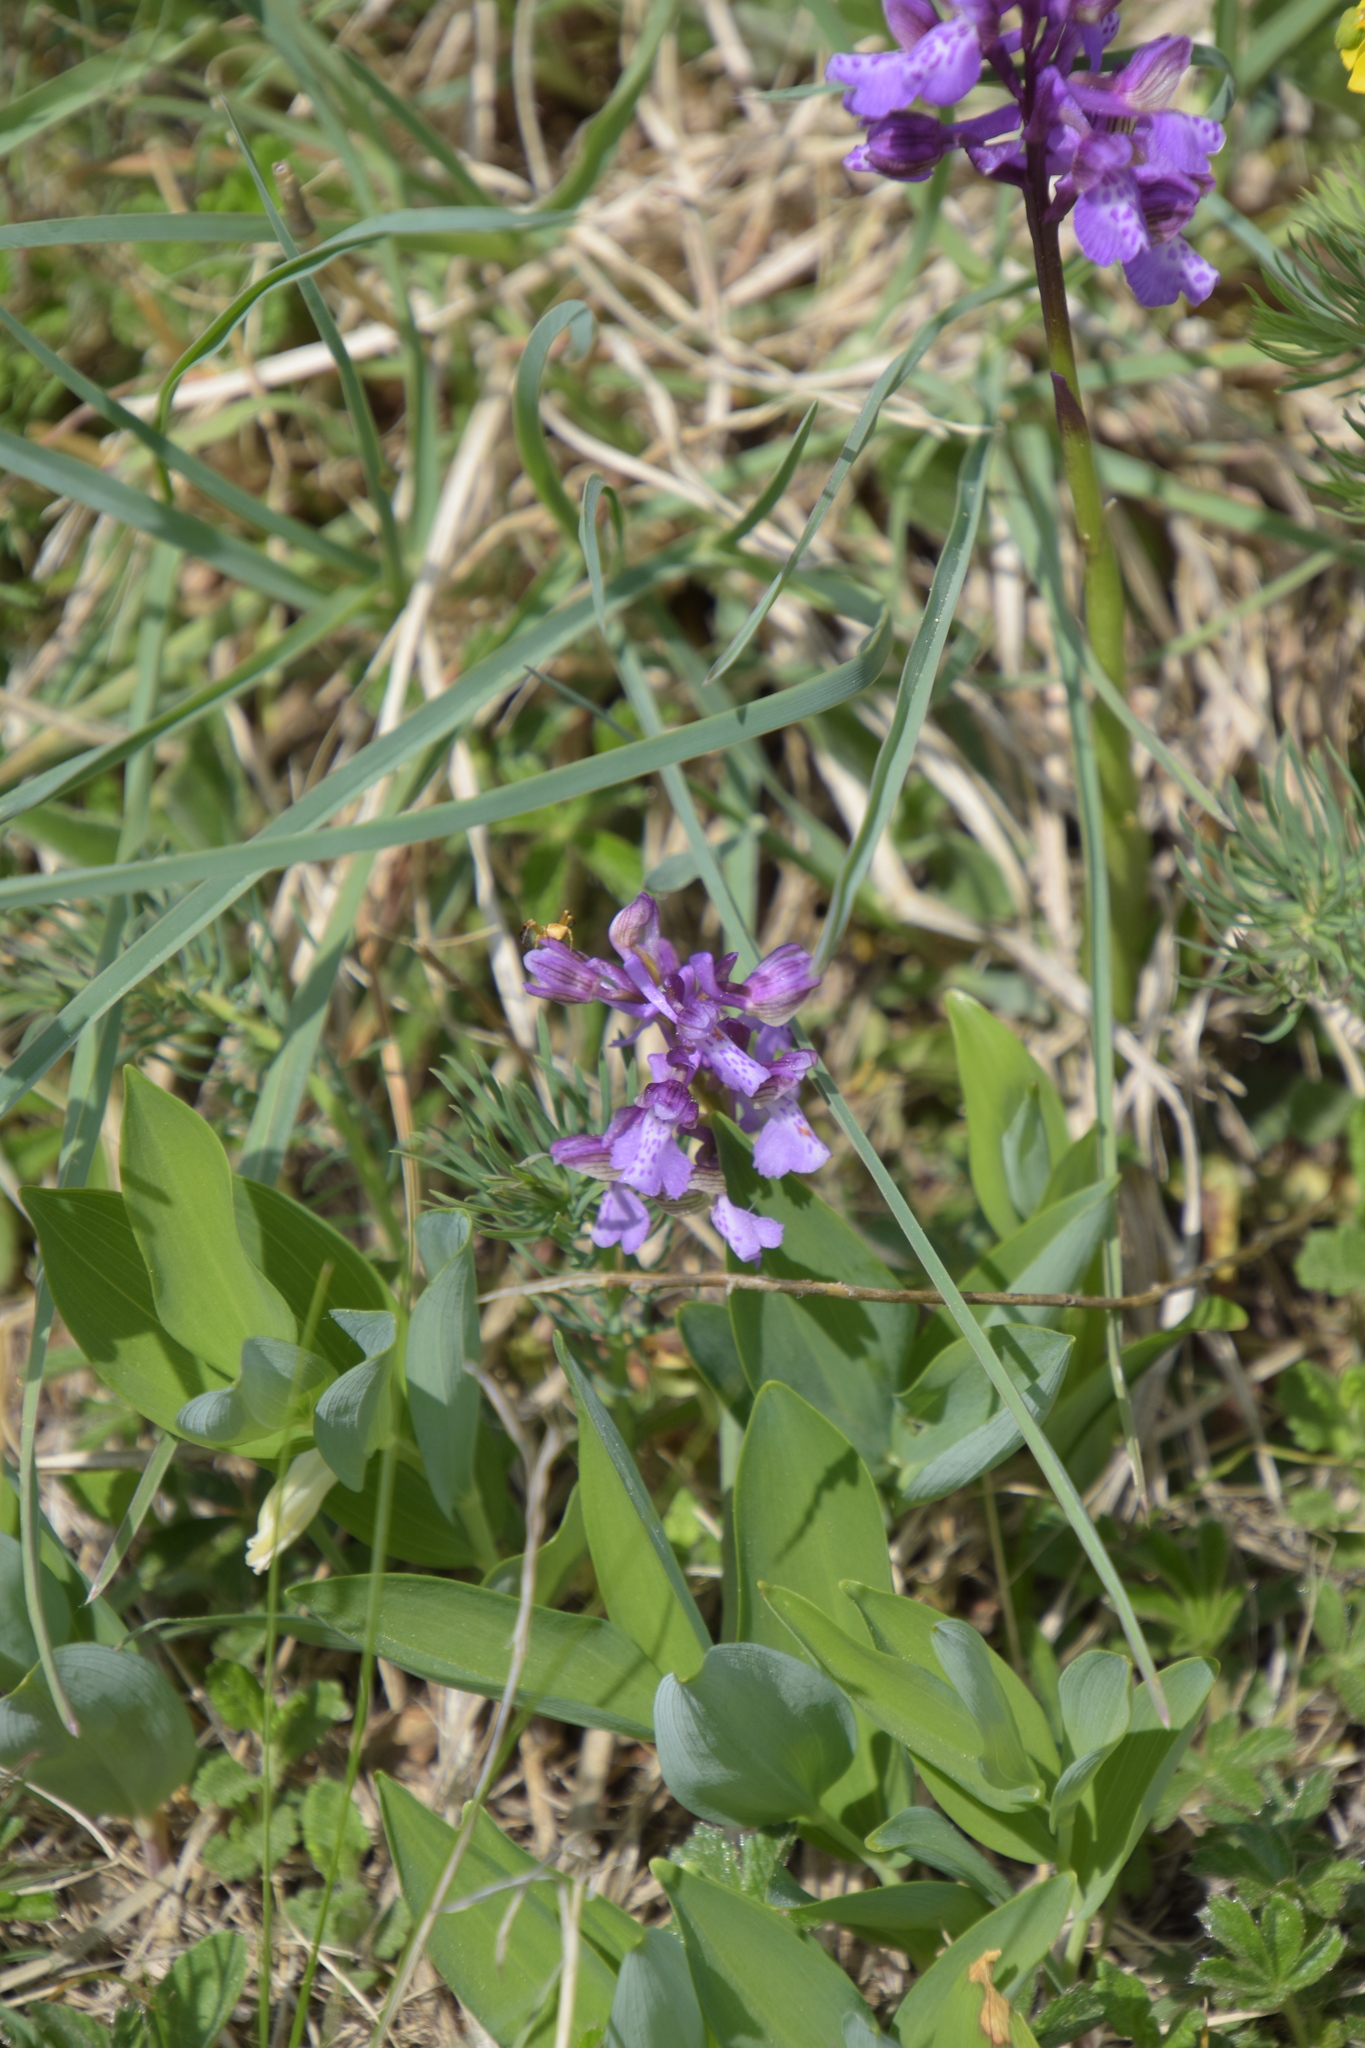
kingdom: Plantae
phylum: Tracheophyta
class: Liliopsida
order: Asparagales
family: Orchidaceae
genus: Anacamptis
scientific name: Anacamptis morio
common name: Green-winged orchid
